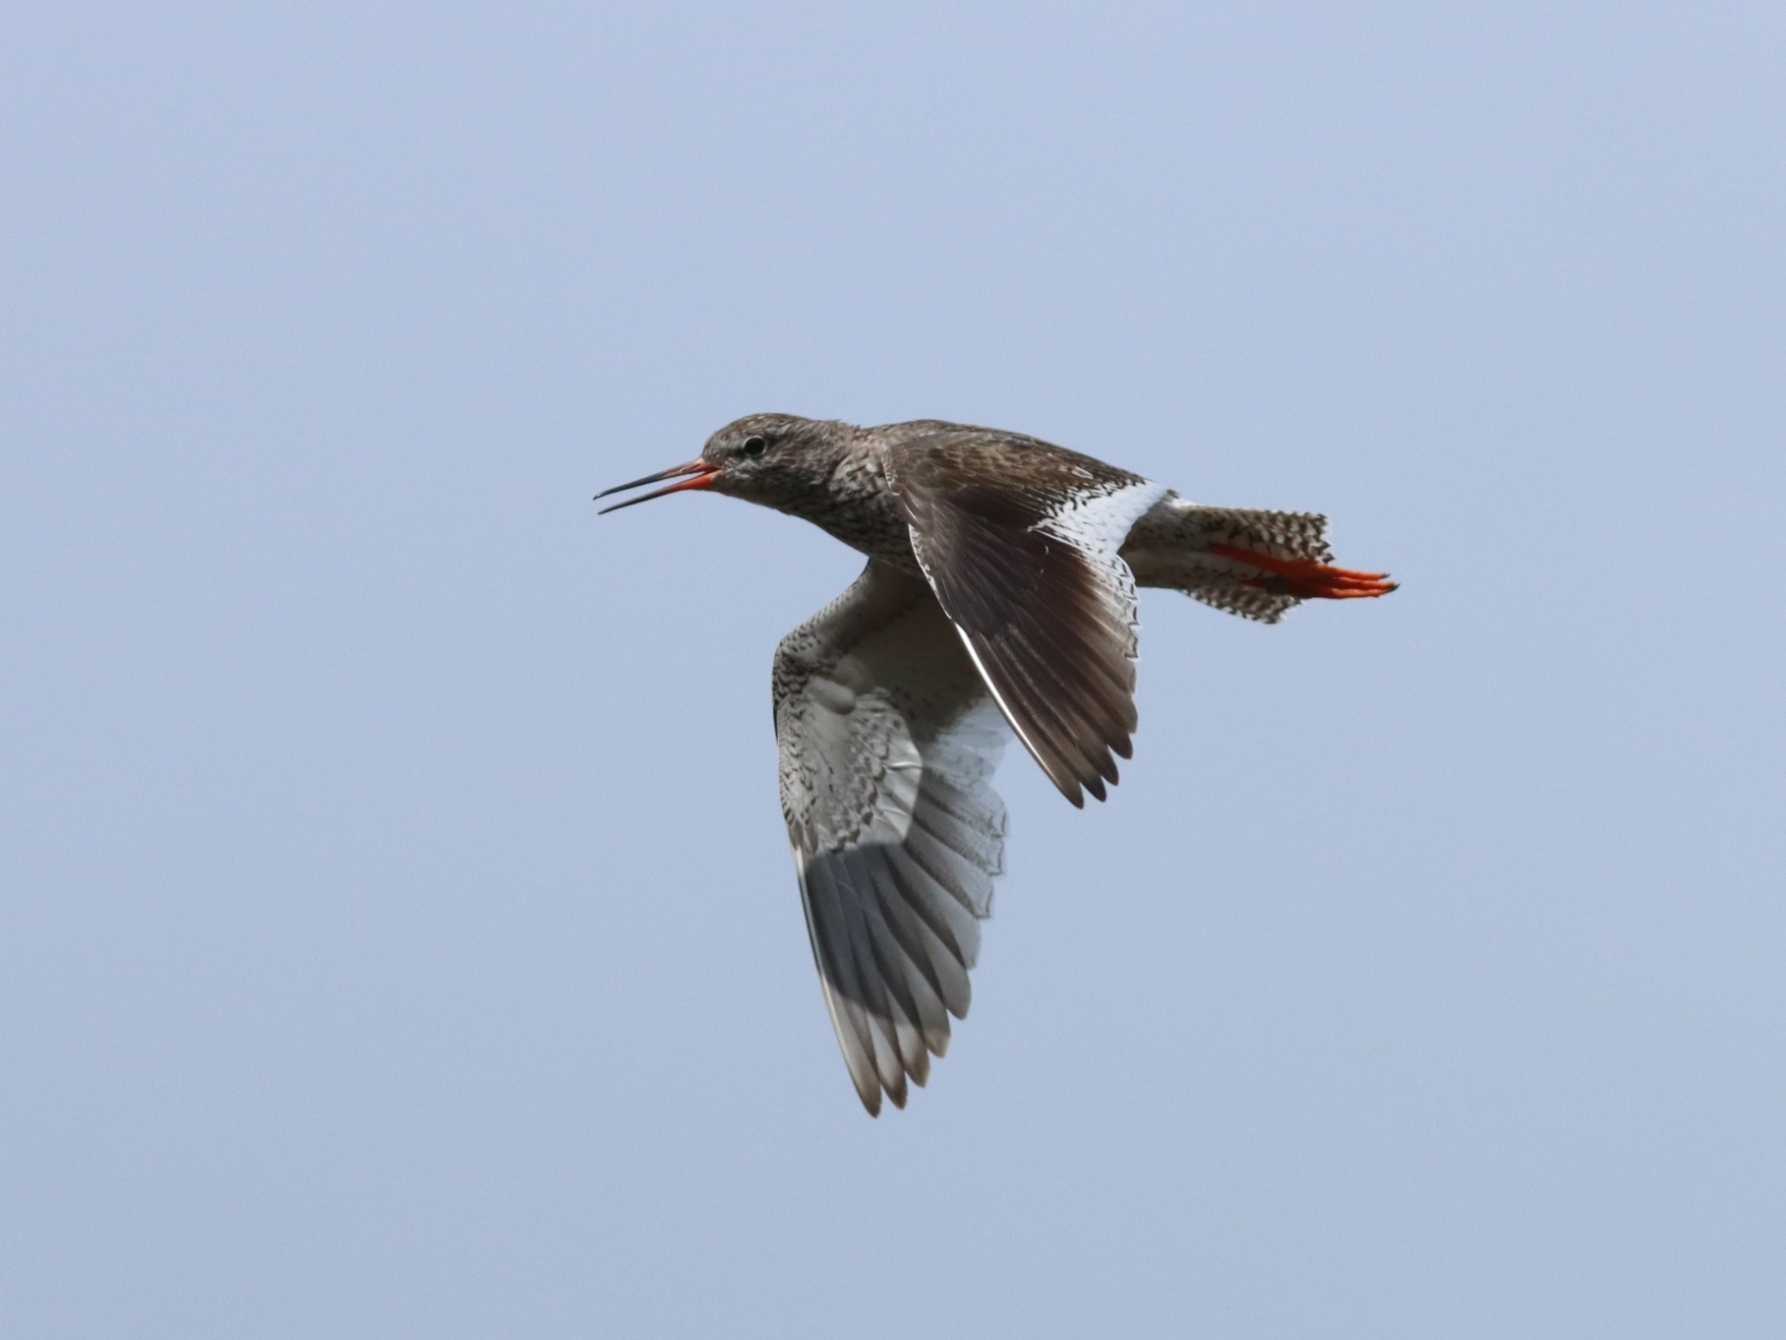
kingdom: Animalia
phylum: Chordata
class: Aves
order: Charadriiformes
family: Scolopacidae
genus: Tringa
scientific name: Tringa totanus
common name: Common redshank
